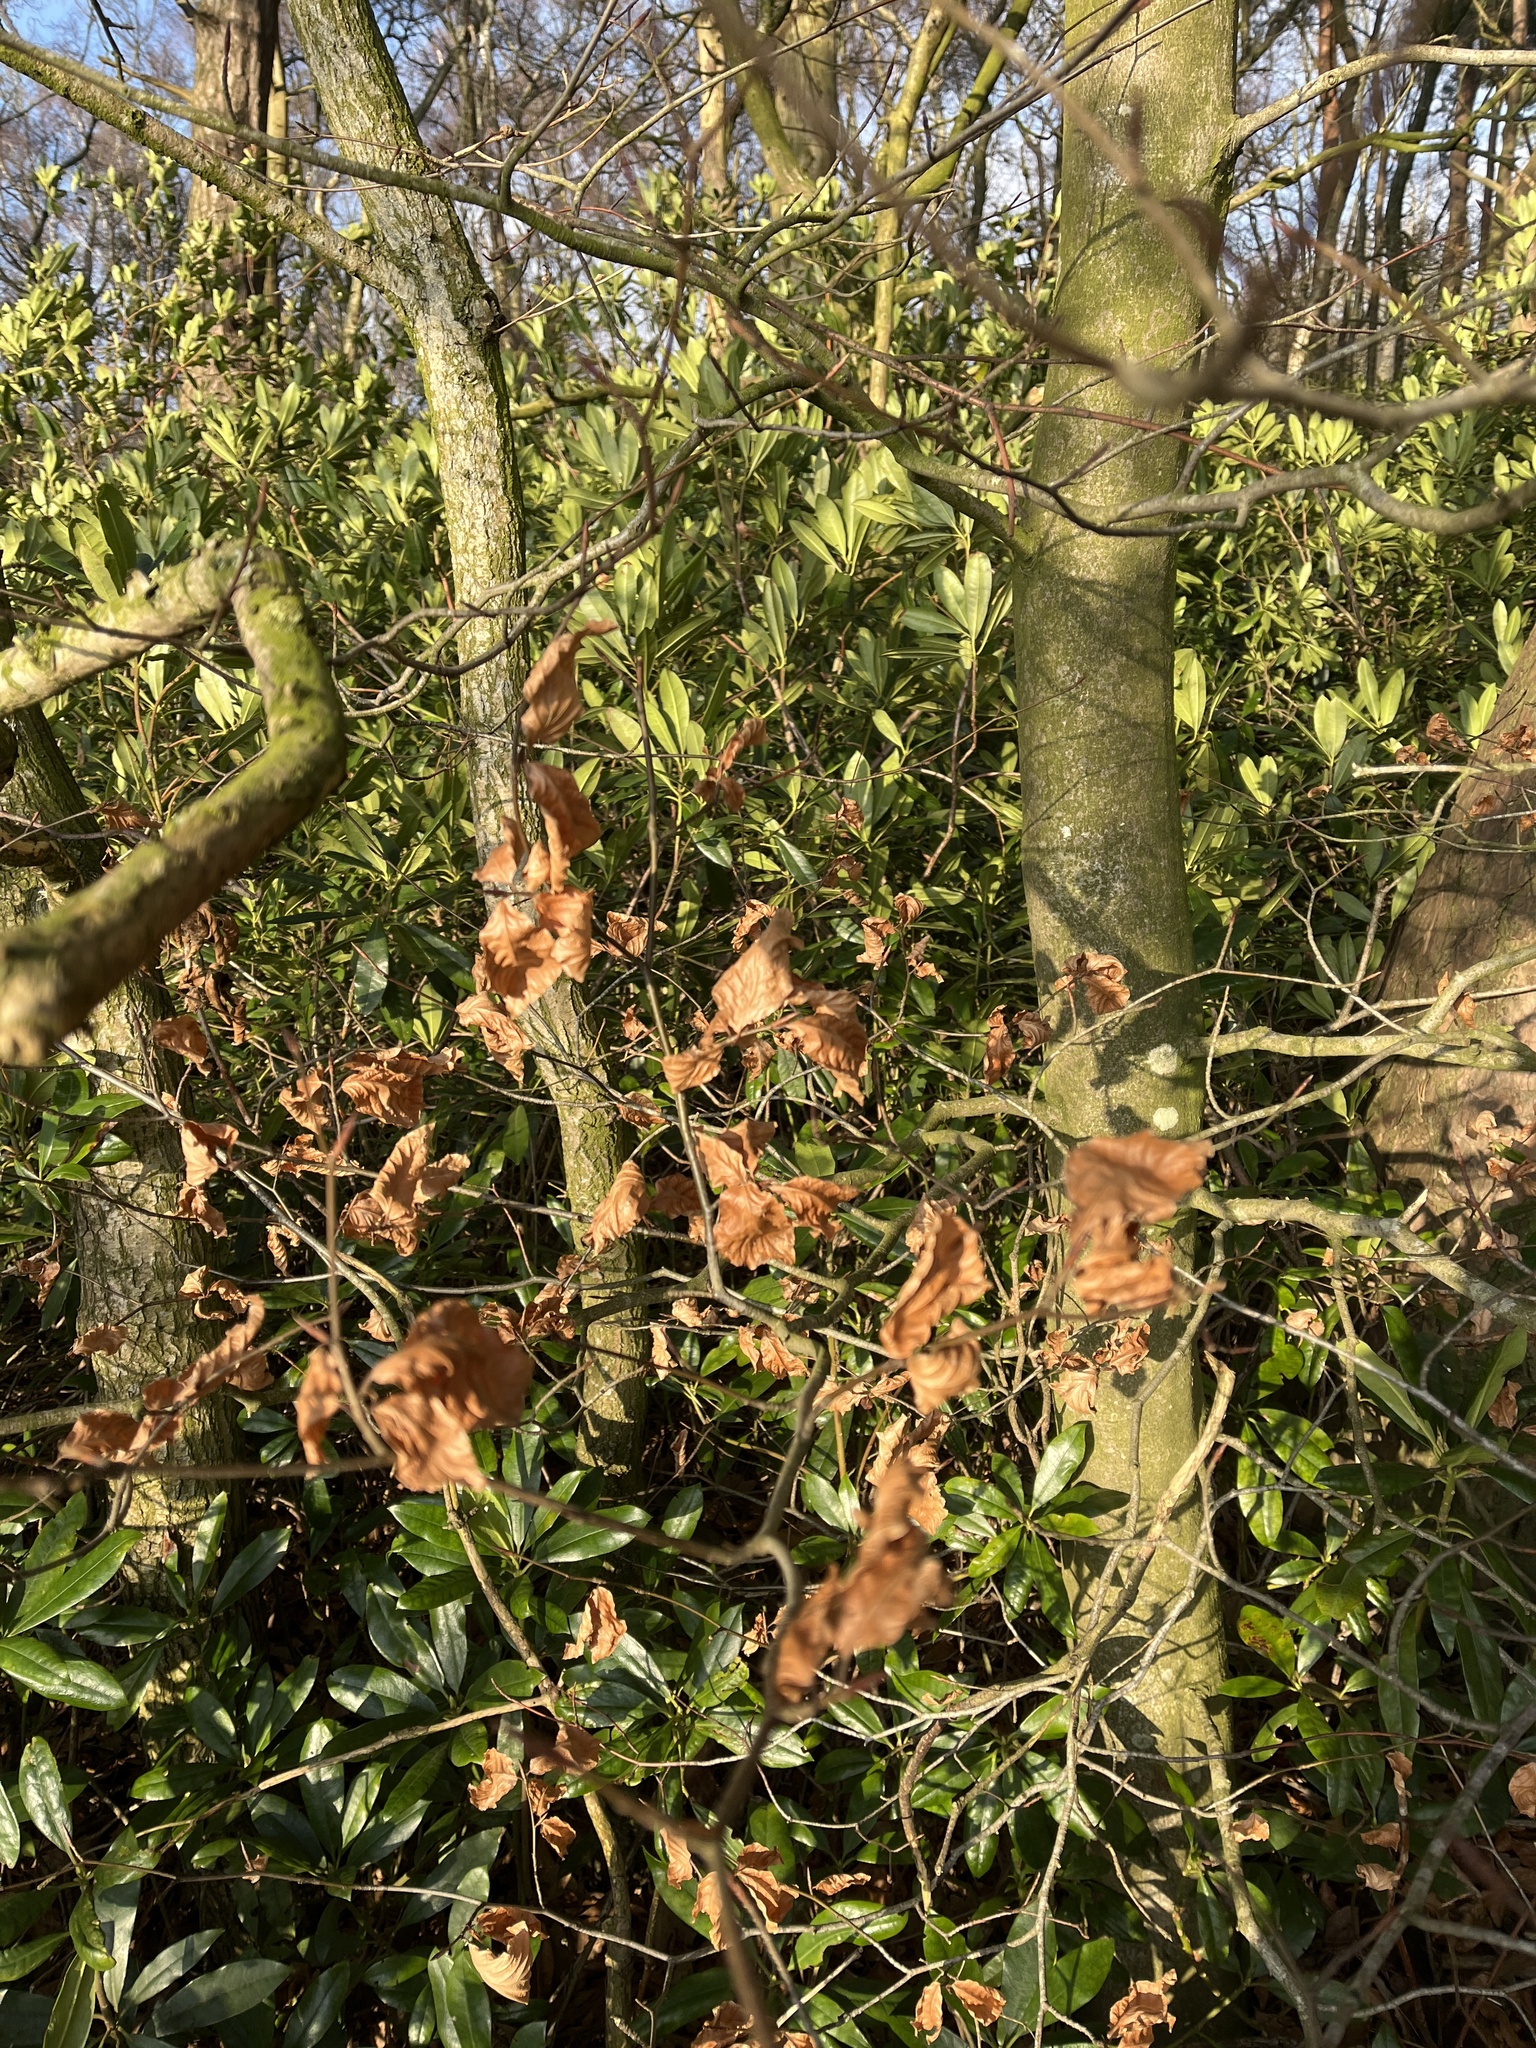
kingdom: Plantae
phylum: Tracheophyta
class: Magnoliopsida
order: Fagales
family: Fagaceae
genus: Fagus
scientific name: Fagus sylvatica
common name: Beech
